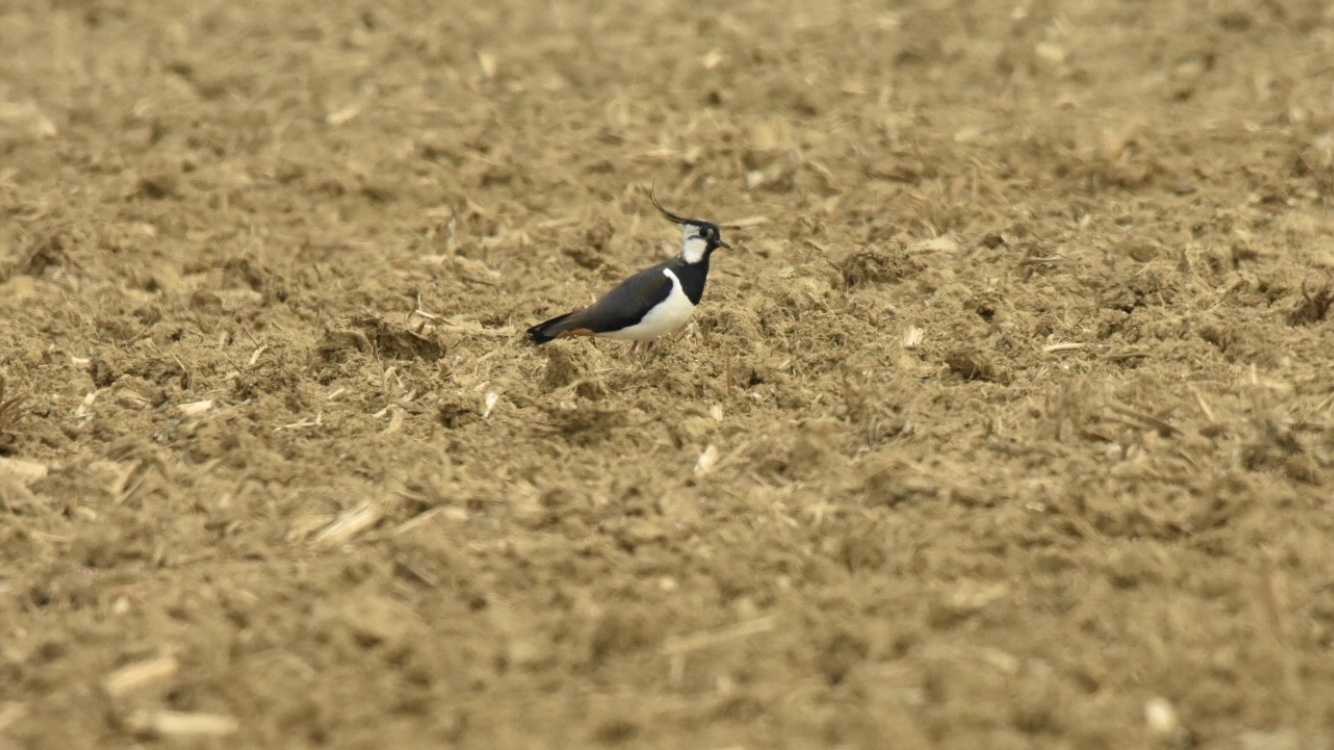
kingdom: Animalia
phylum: Chordata
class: Aves
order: Charadriiformes
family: Charadriidae
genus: Vanellus
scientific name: Vanellus vanellus
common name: Northern lapwing
